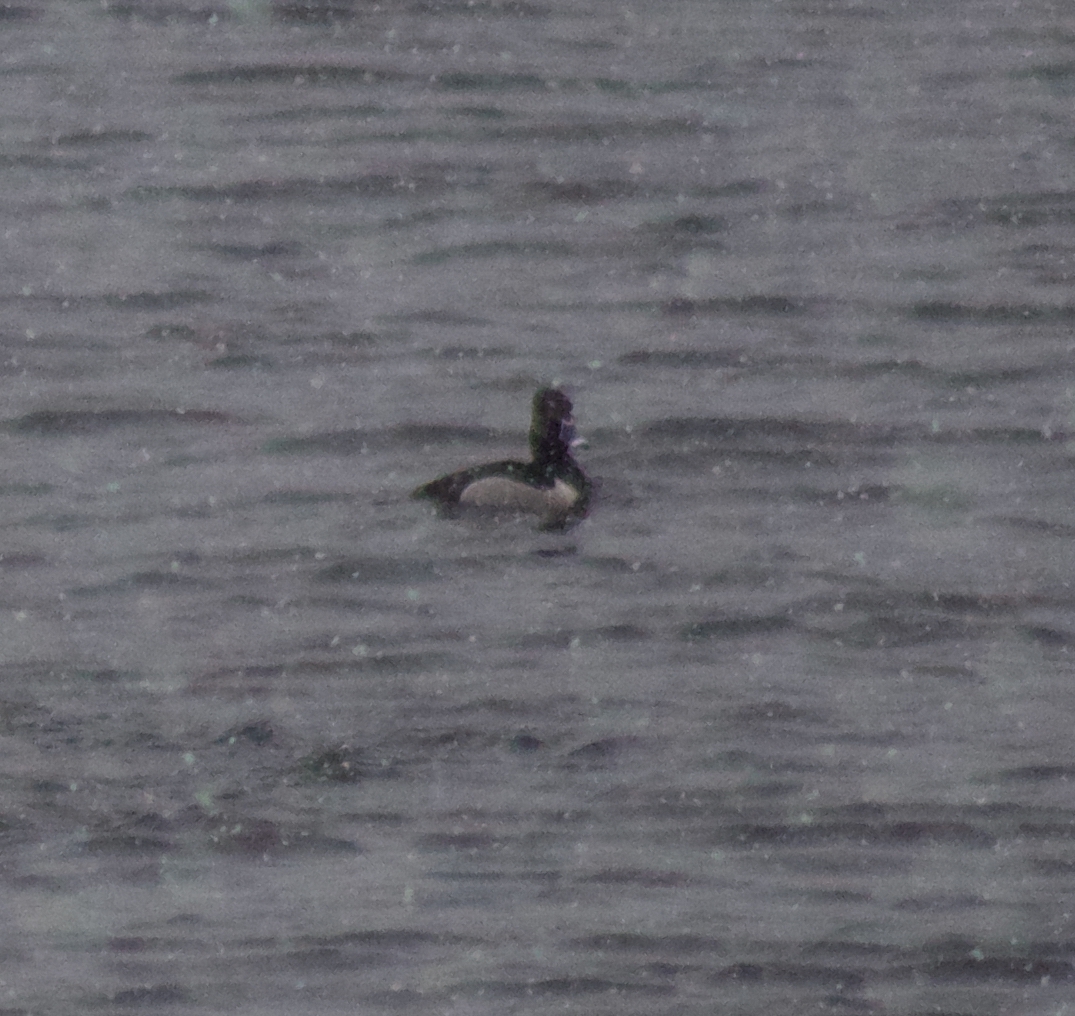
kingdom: Animalia
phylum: Chordata
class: Aves
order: Anseriformes
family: Anatidae
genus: Aythya
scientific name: Aythya collaris
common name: Ring-necked duck
